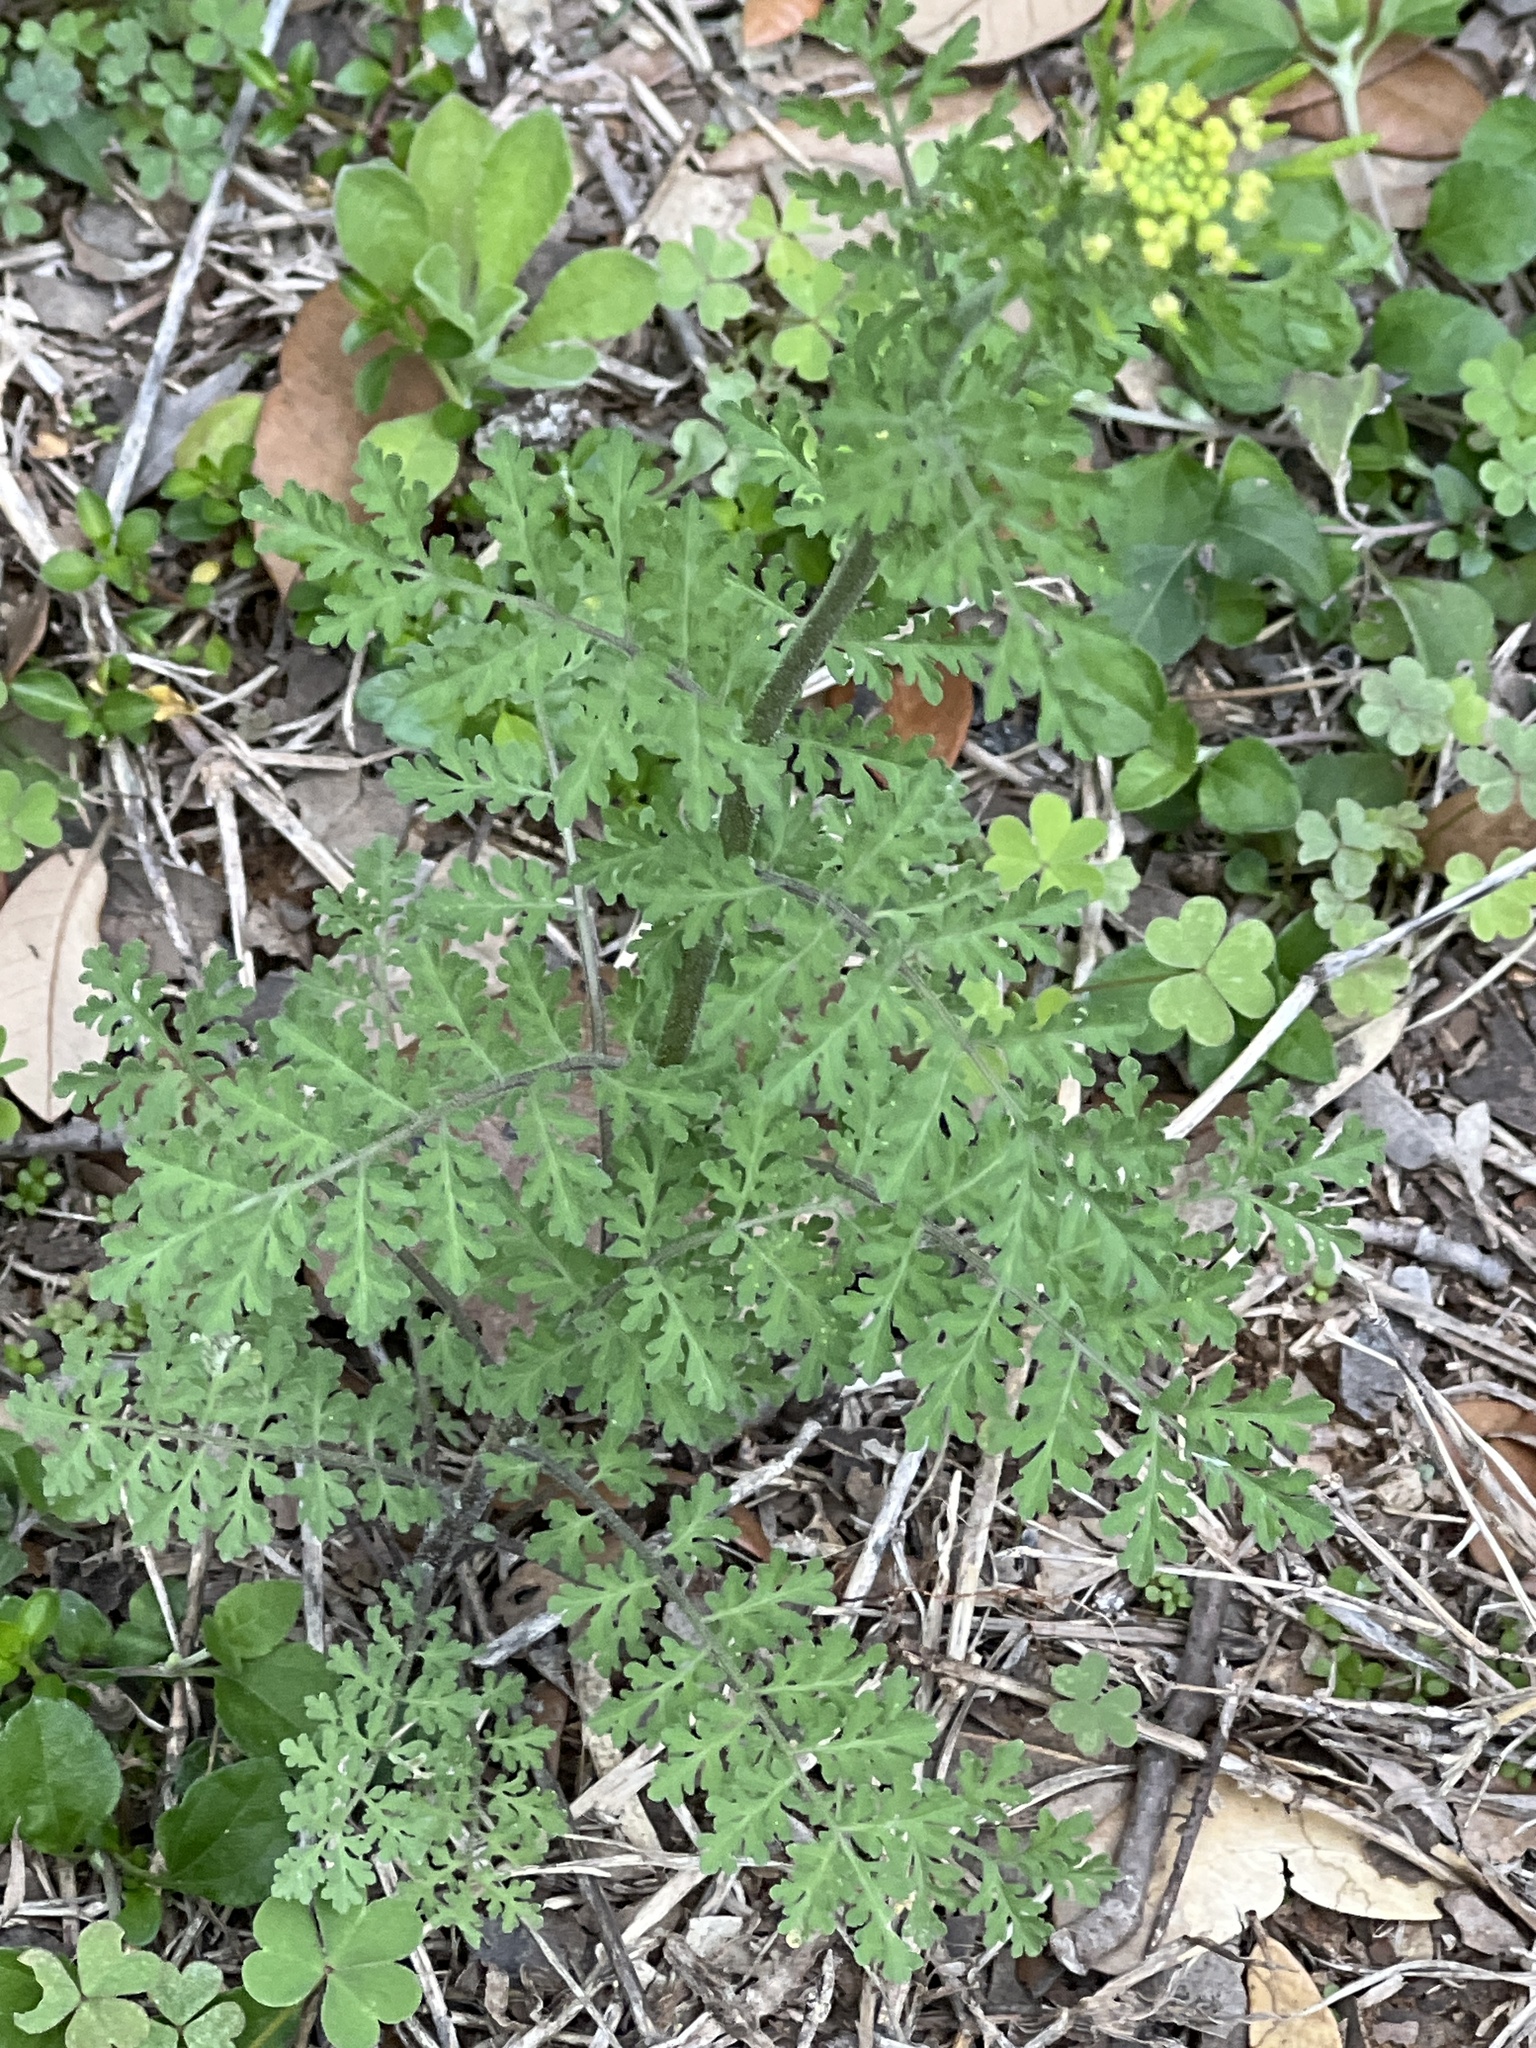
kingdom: Plantae
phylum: Tracheophyta
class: Magnoliopsida
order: Brassicales
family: Brassicaceae
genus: Descurainia
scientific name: Descurainia pinnata
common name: Western tansy mustard
